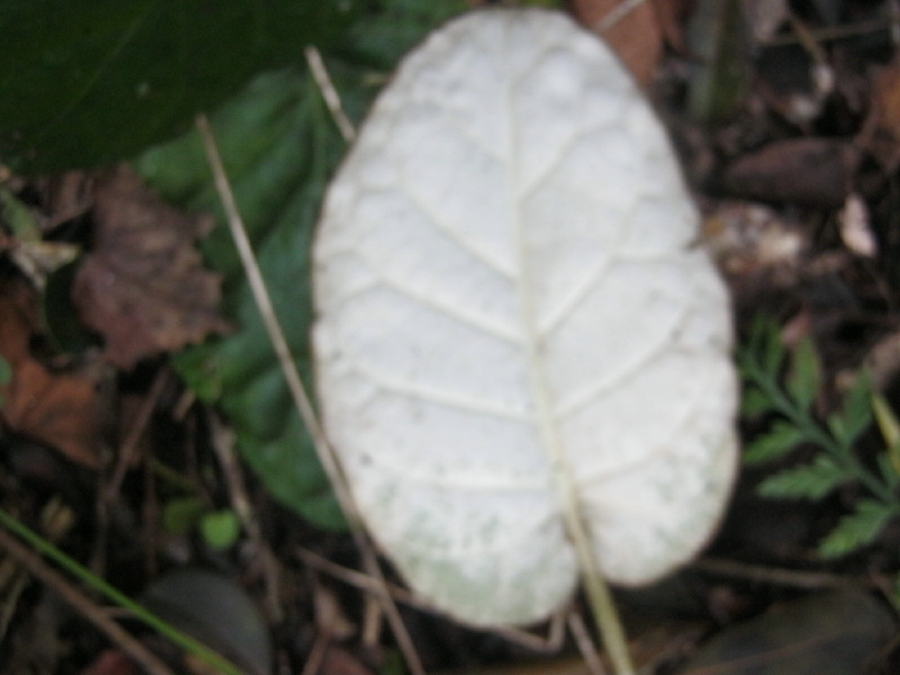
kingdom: Plantae
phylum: Tracheophyta
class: Magnoliopsida
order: Asterales
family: Asteraceae
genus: Piloselloides
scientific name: Piloselloides cordata
